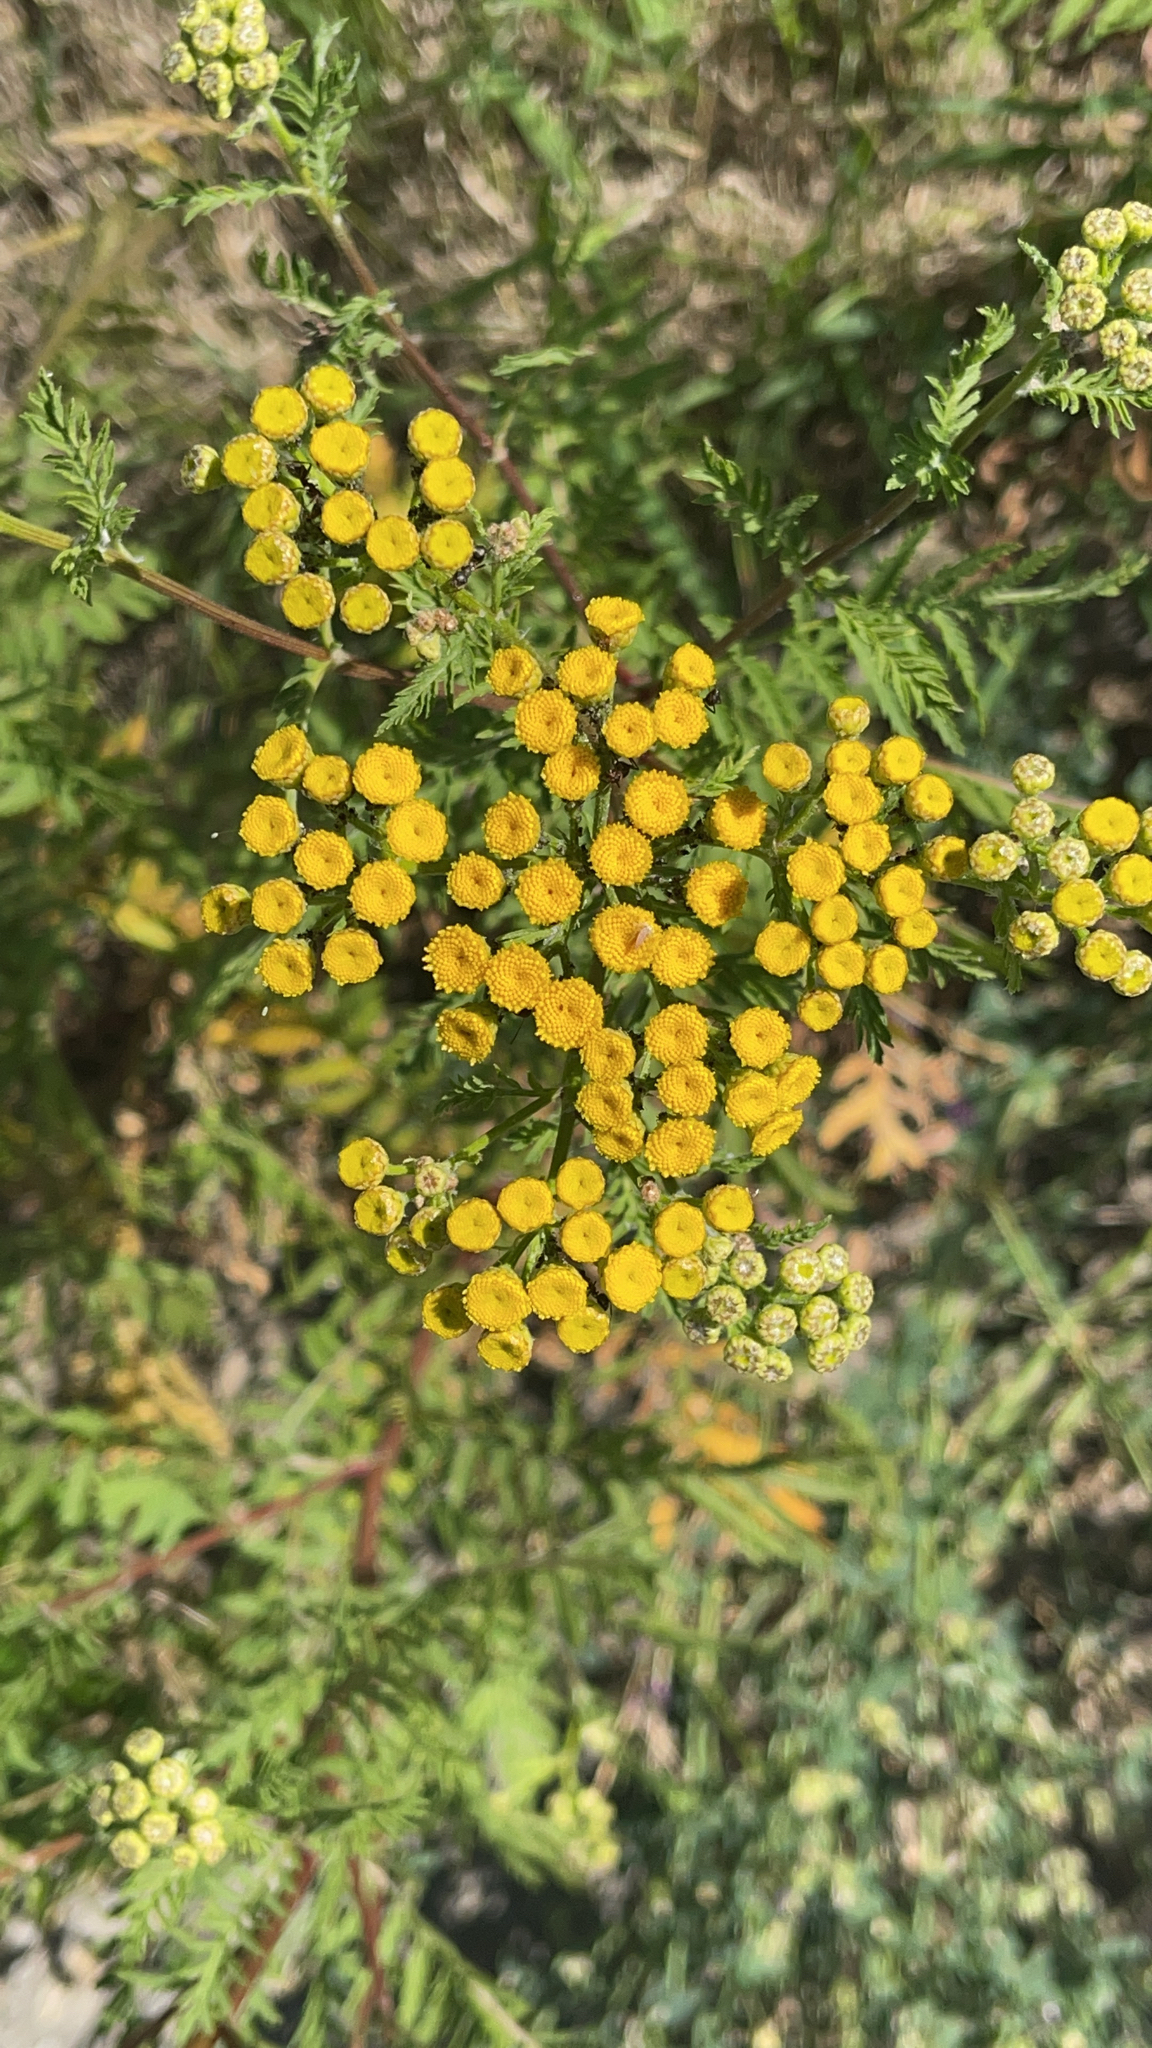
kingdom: Plantae
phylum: Tracheophyta
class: Magnoliopsida
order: Asterales
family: Asteraceae
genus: Tanacetum
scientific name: Tanacetum vulgare
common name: Common tansy
